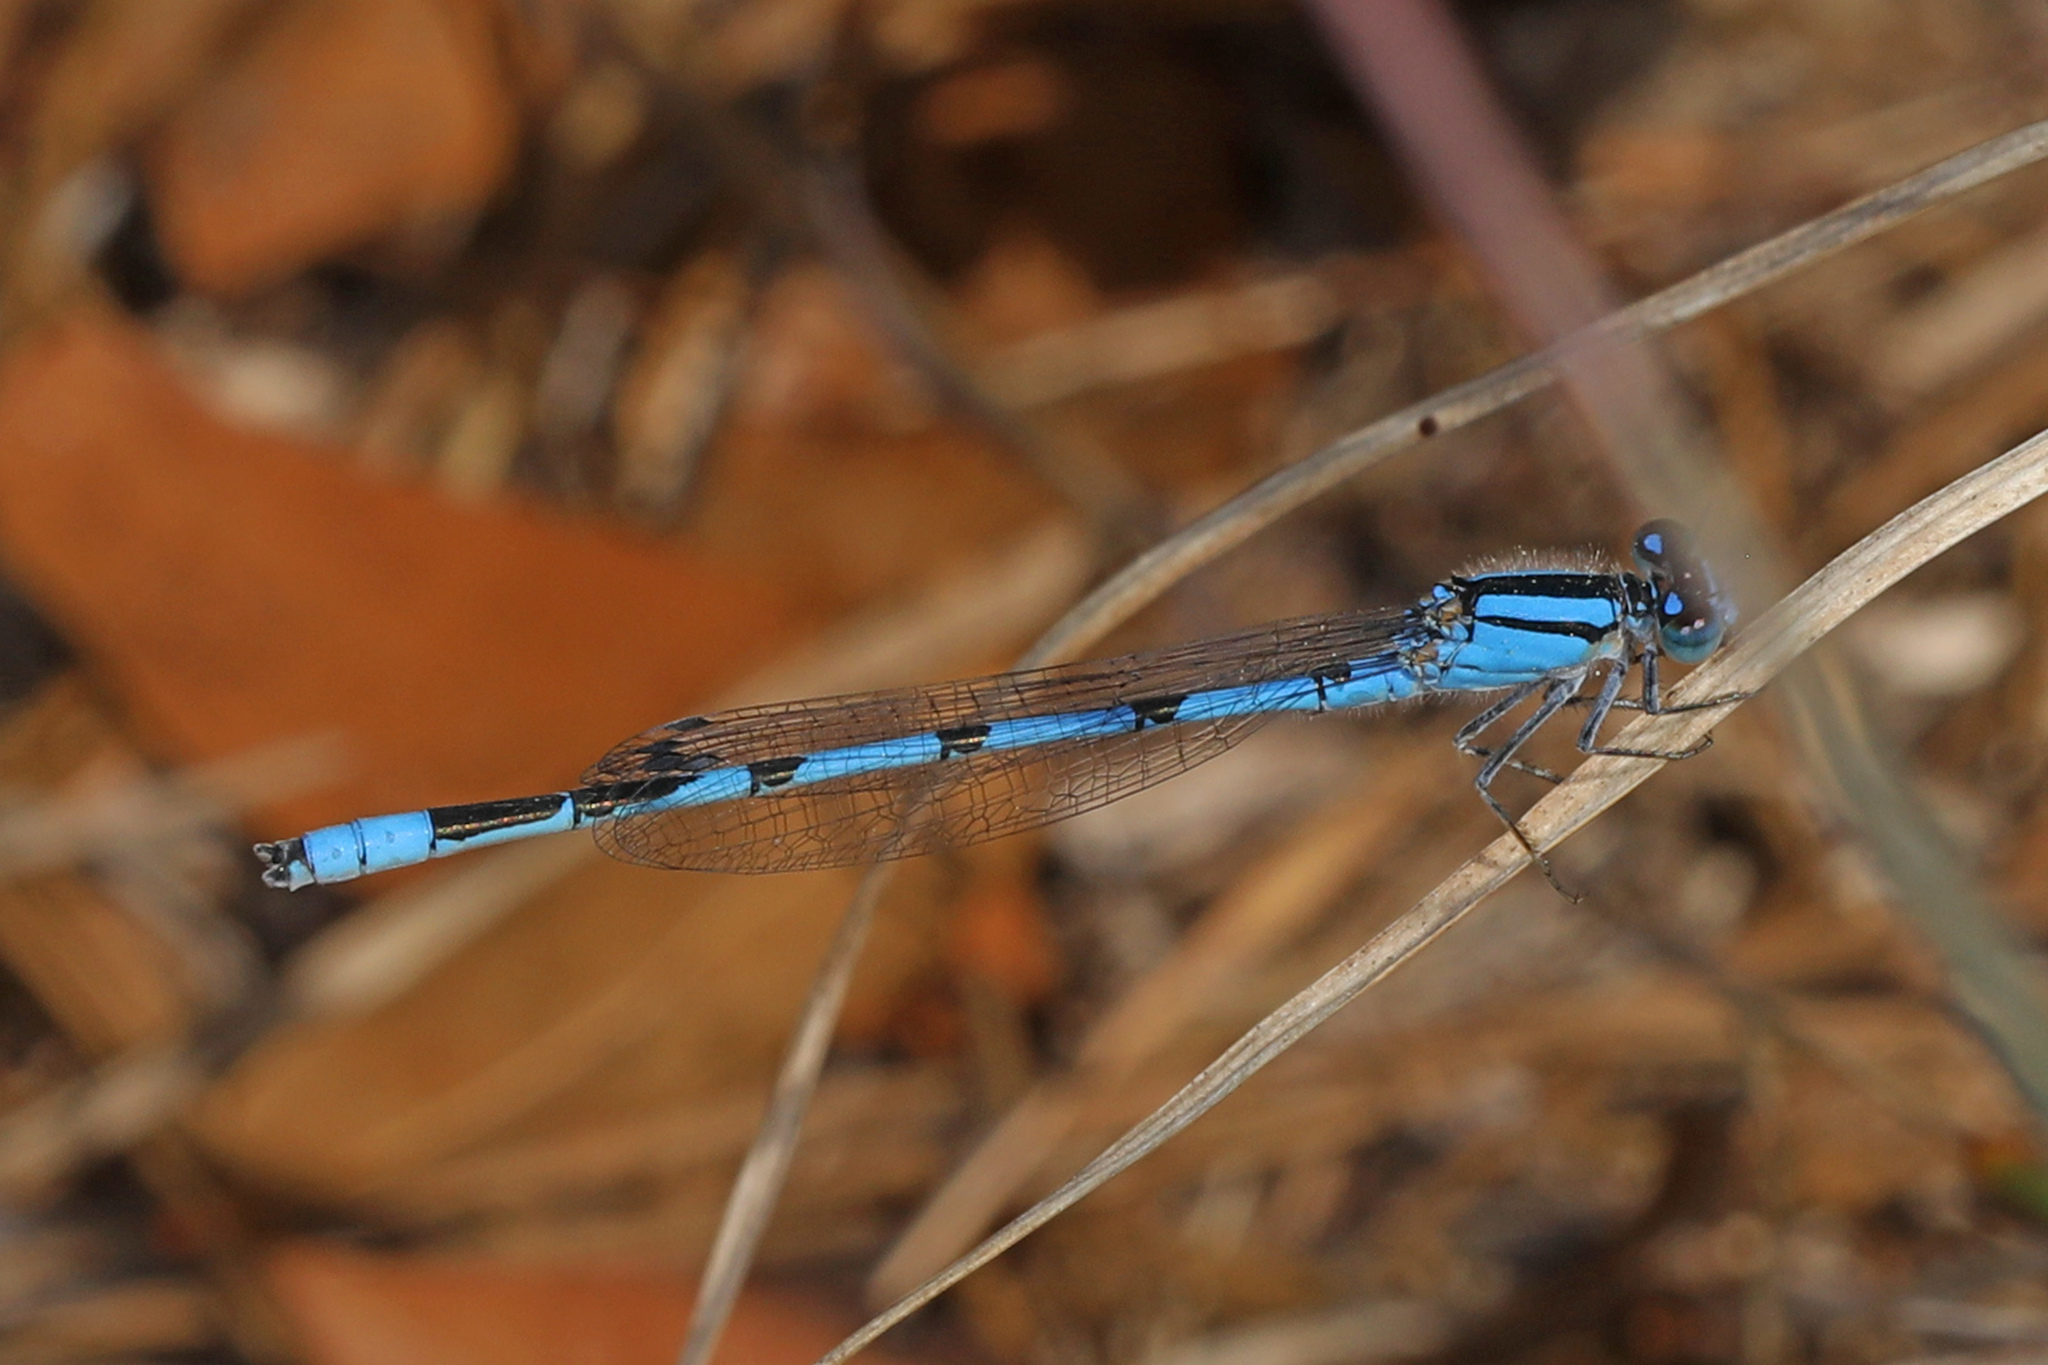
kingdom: Animalia
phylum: Arthropoda
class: Insecta
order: Odonata
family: Coenagrionidae
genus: Enallagma
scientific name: Enallagma civile
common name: Damselfly
